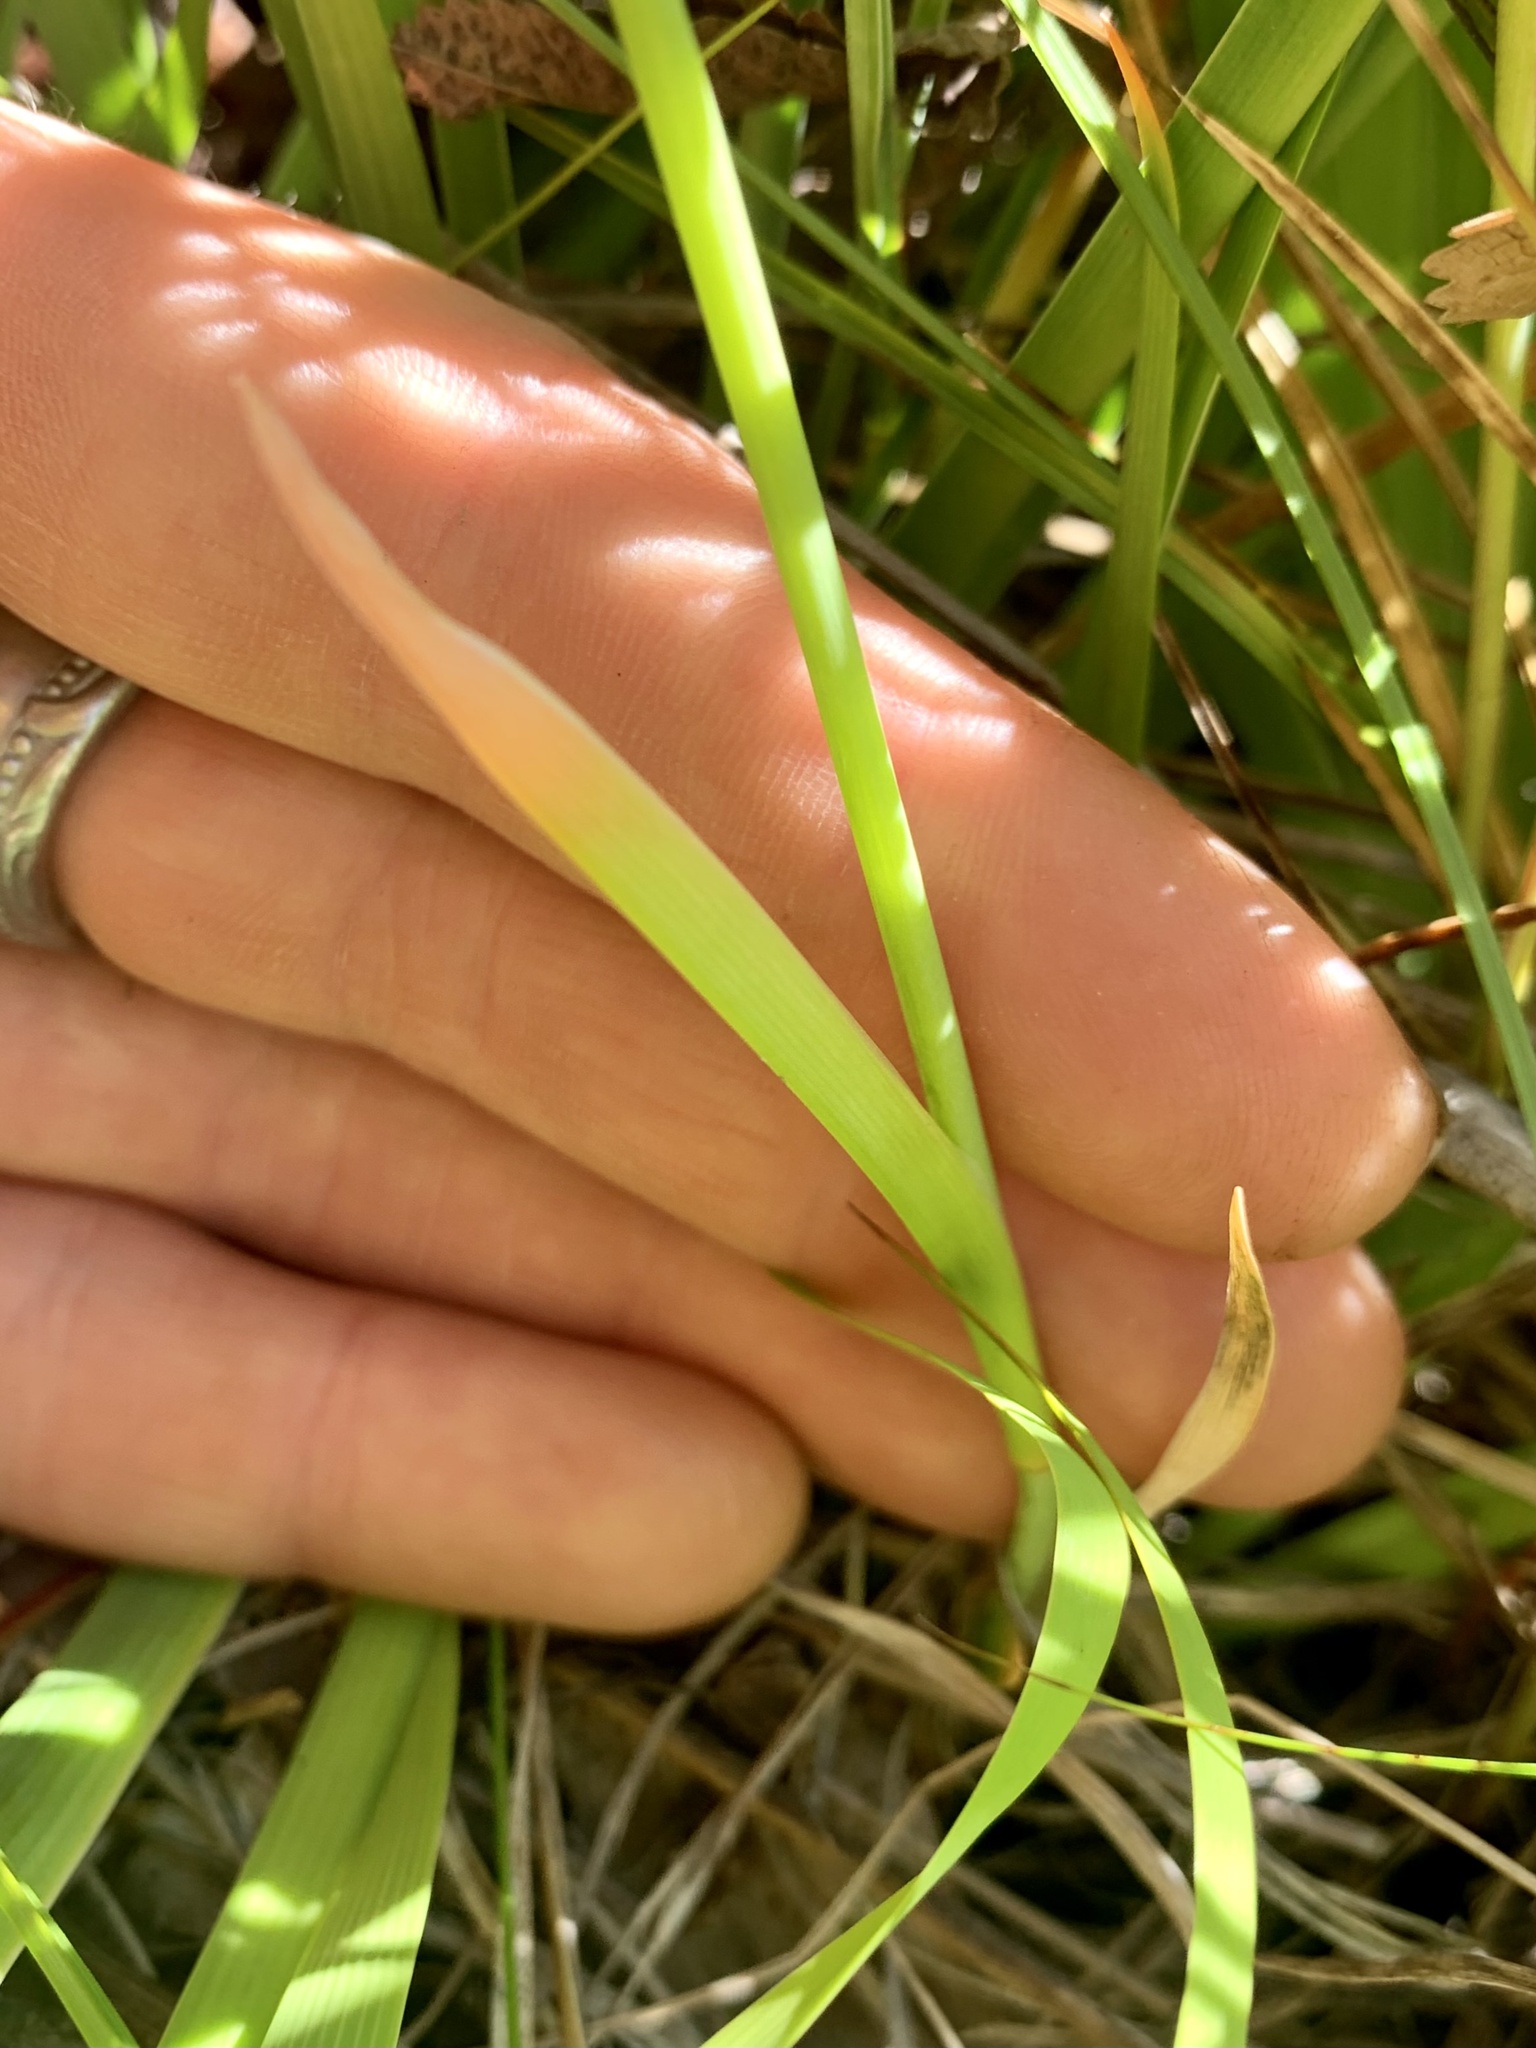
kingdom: Plantae
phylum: Tracheophyta
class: Liliopsida
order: Dioscoreales
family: Nartheciaceae
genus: Narthecium
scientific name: Narthecium californicum
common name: California bog-asphodel
